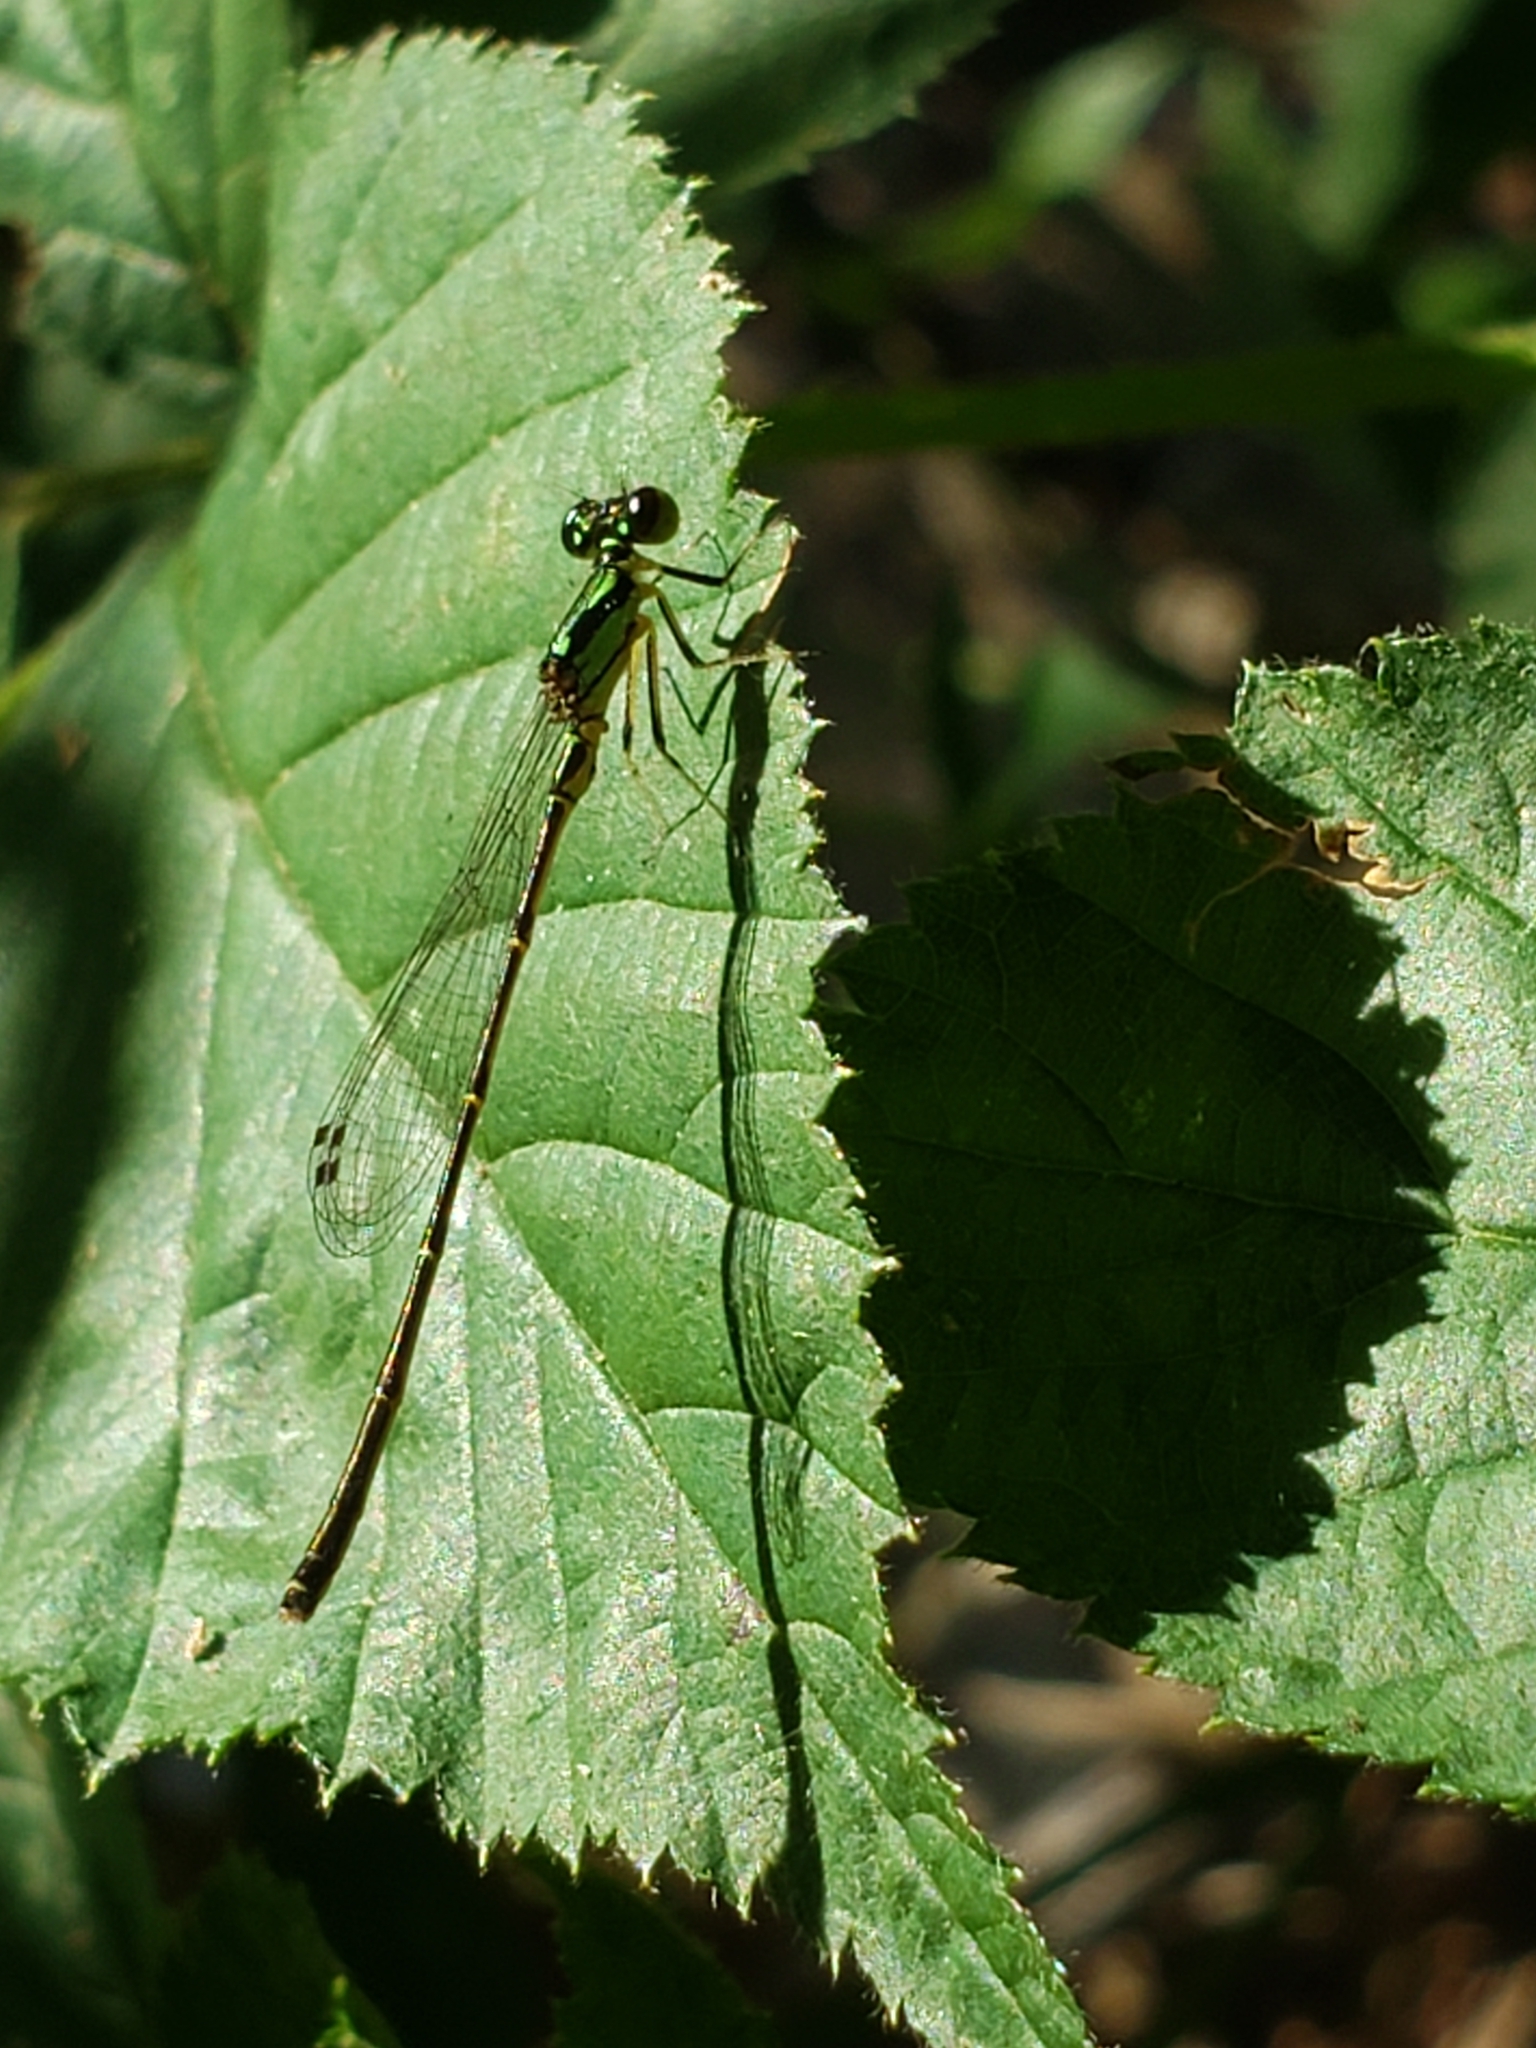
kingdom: Animalia
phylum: Arthropoda
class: Insecta
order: Odonata
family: Coenagrionidae
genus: Ischnura
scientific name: Ischnura posita
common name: Fragile forktail
